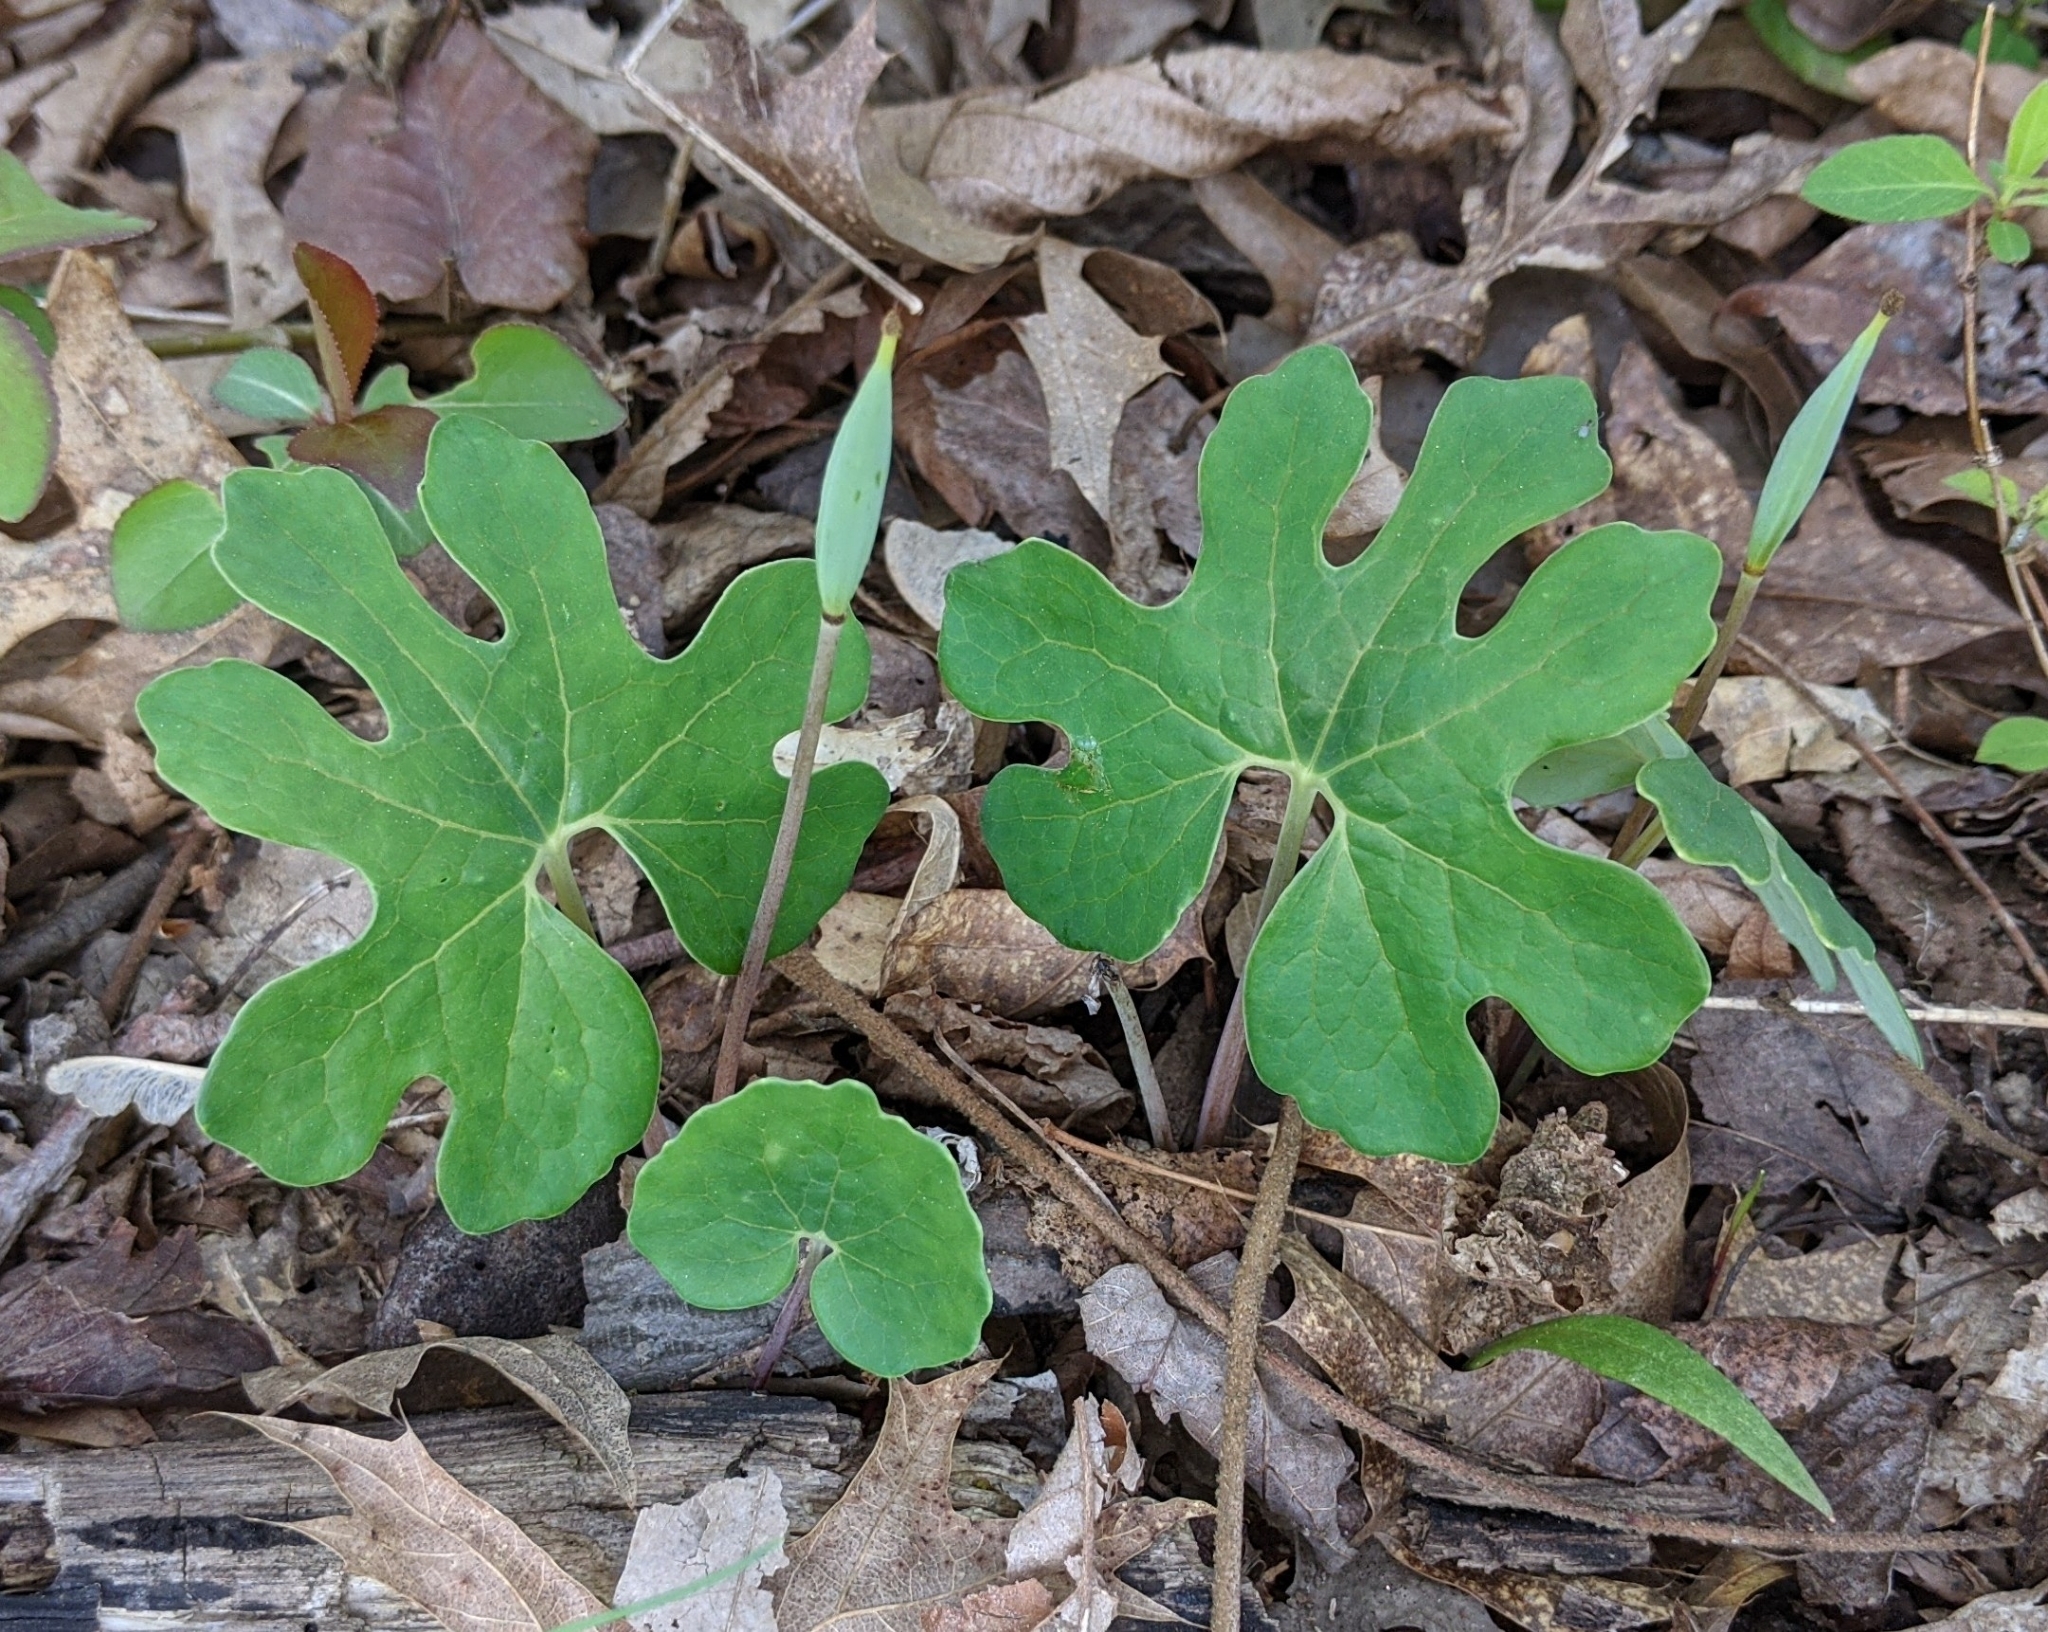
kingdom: Plantae
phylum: Tracheophyta
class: Magnoliopsida
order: Ranunculales
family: Papaveraceae
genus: Sanguinaria
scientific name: Sanguinaria canadensis
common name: Bloodroot
